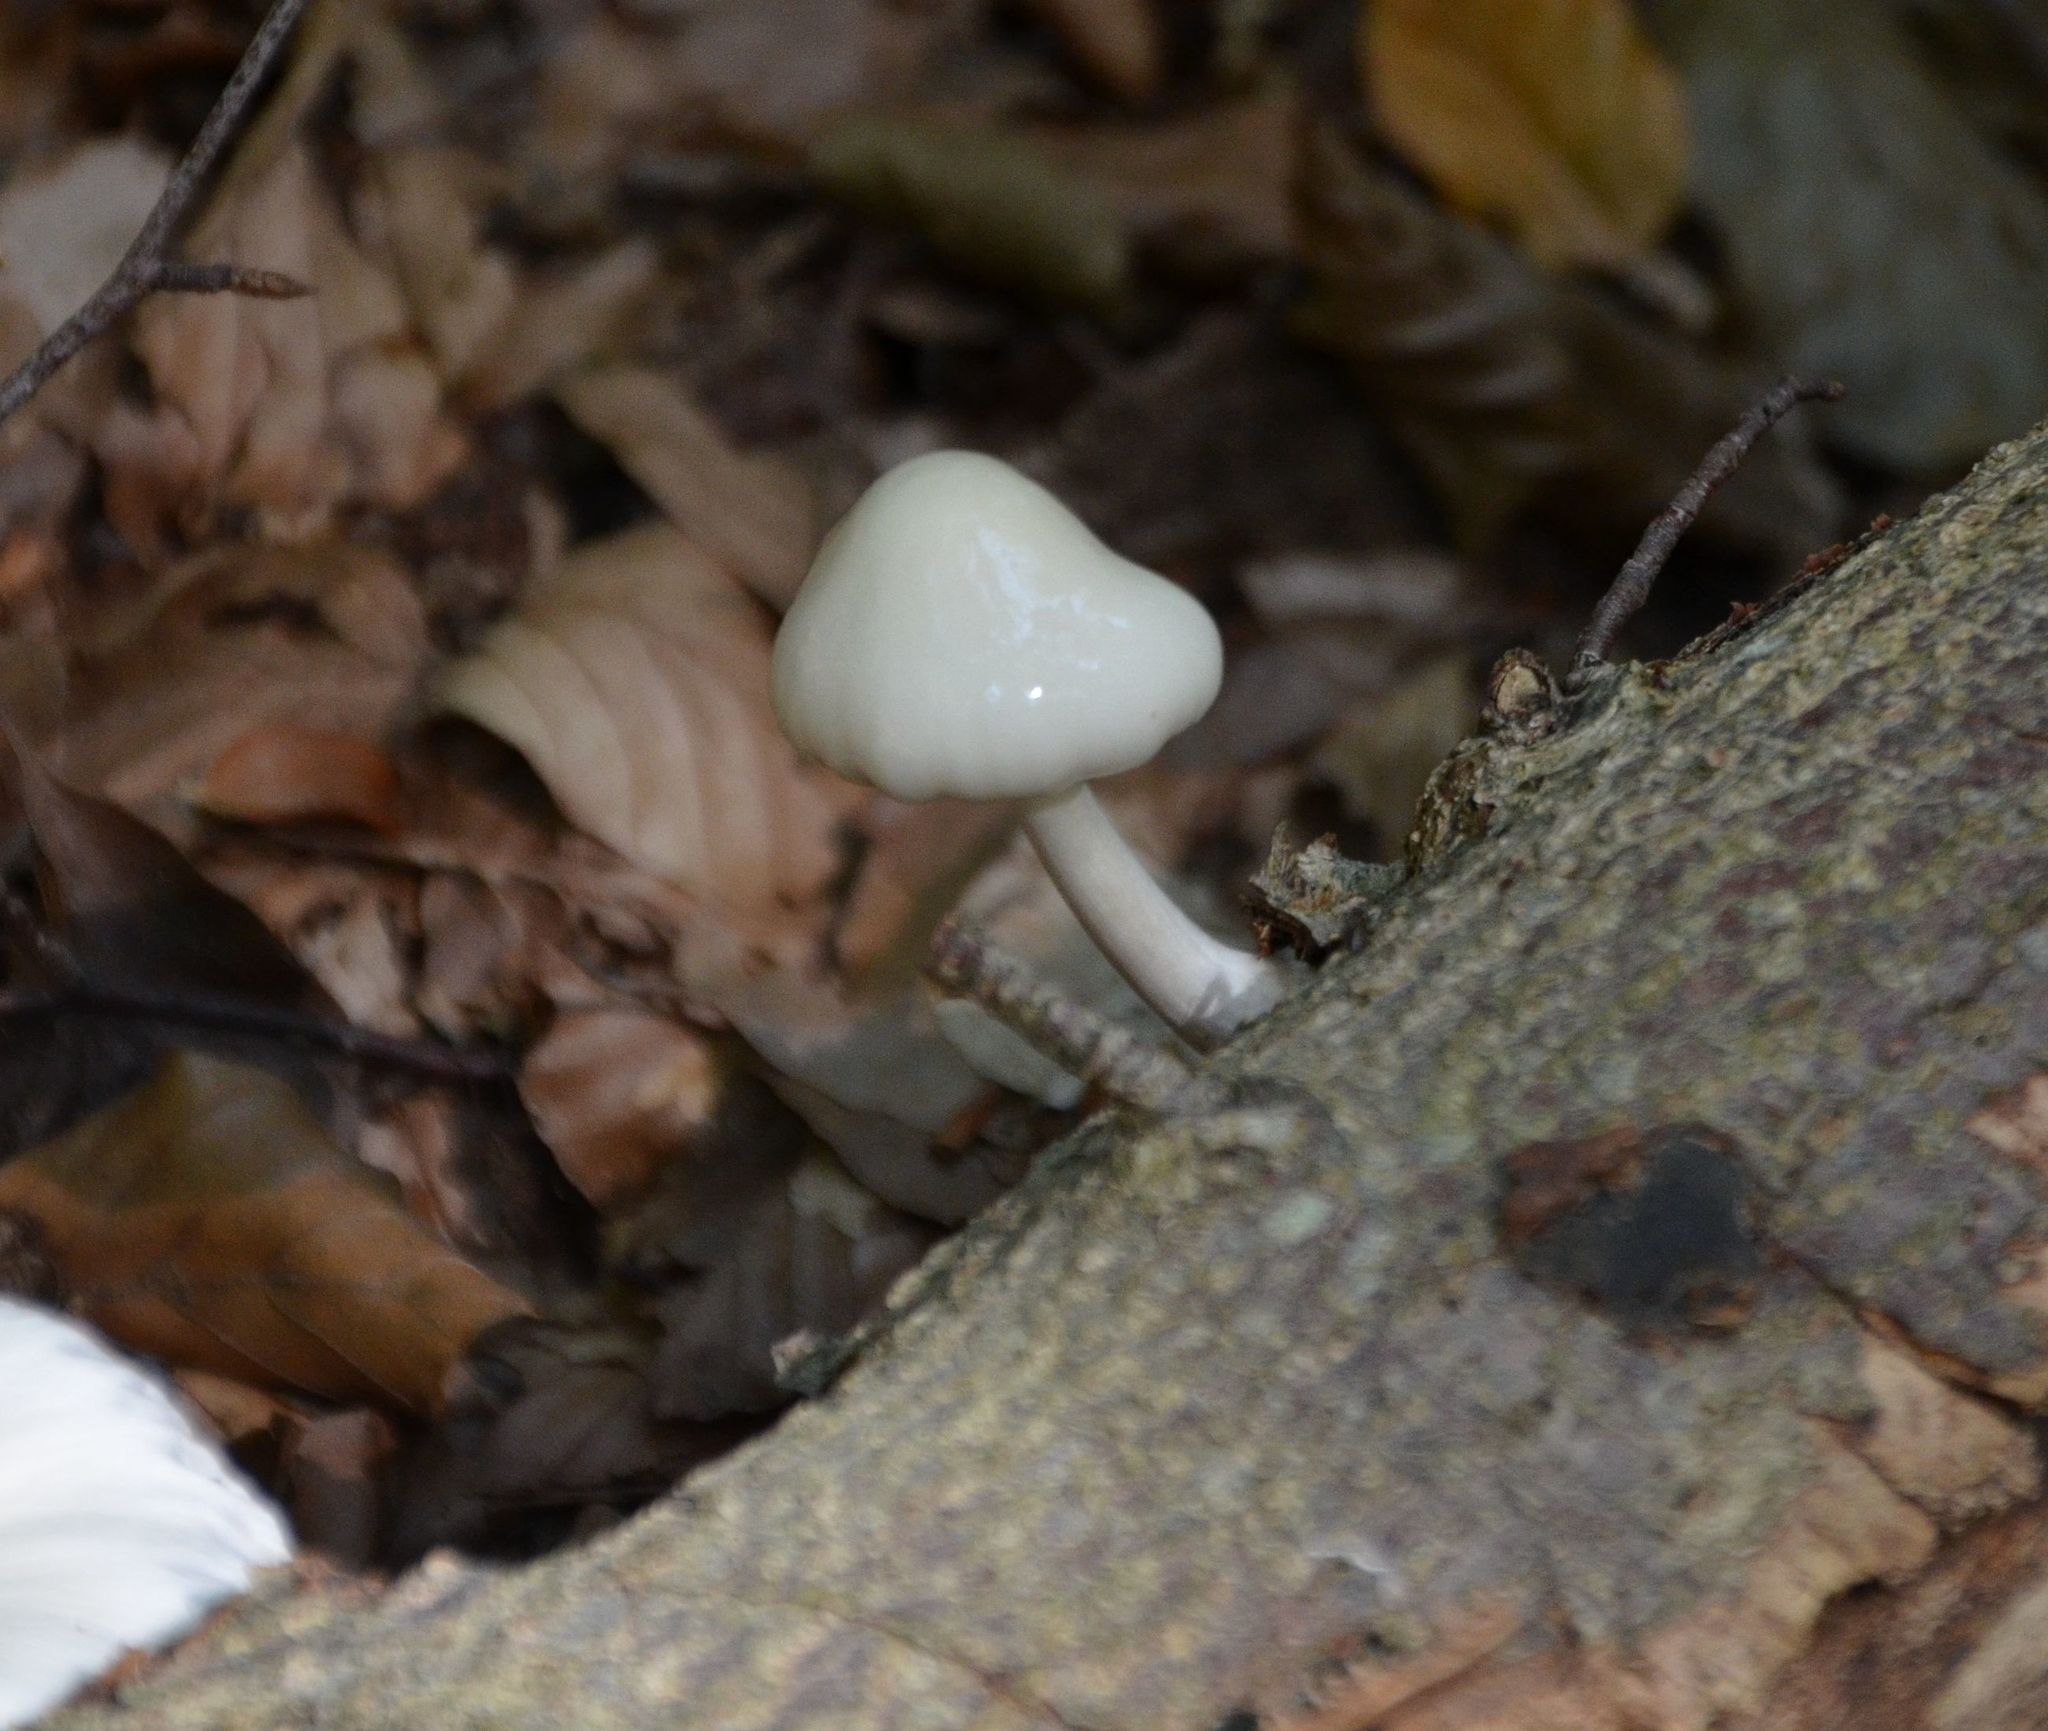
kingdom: Fungi
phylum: Basidiomycota
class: Agaricomycetes
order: Agaricales
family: Physalacriaceae
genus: Mucidula
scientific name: Mucidula mucida
